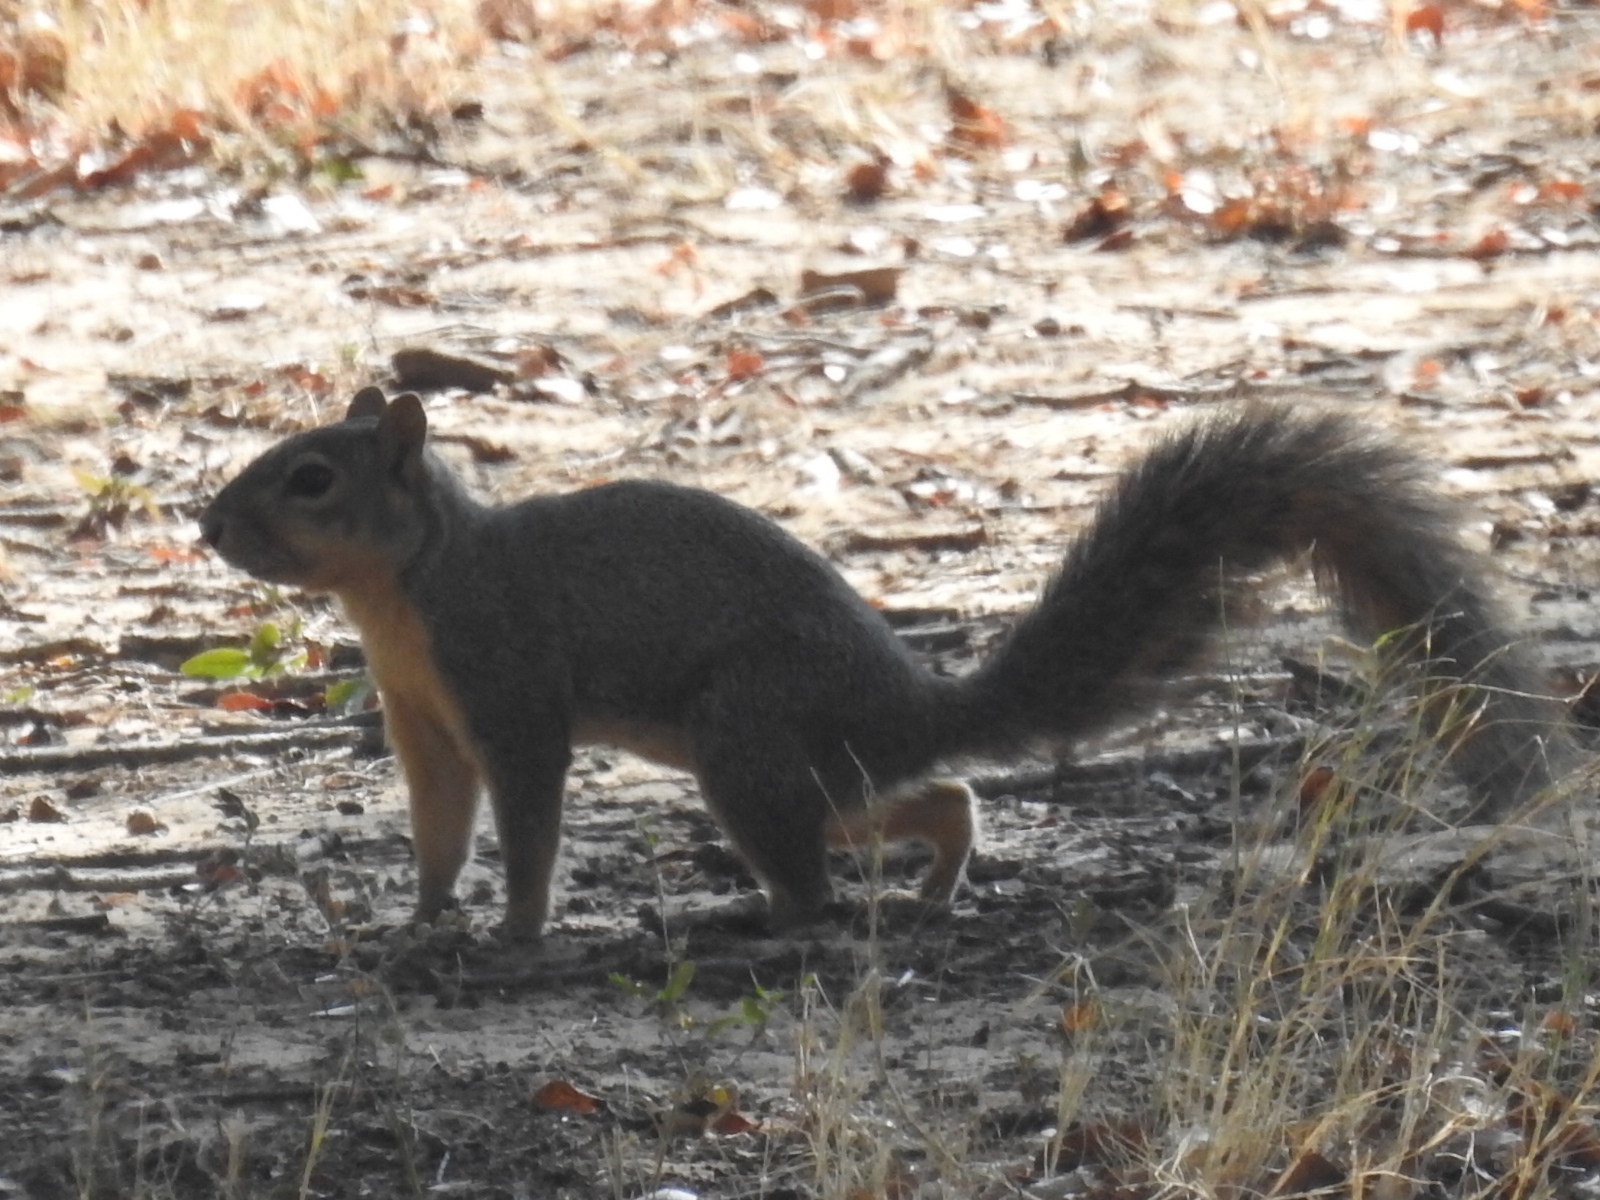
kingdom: Animalia
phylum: Chordata
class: Mammalia
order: Rodentia
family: Sciuridae
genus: Sciurus
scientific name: Sciurus niger
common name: Fox squirrel
